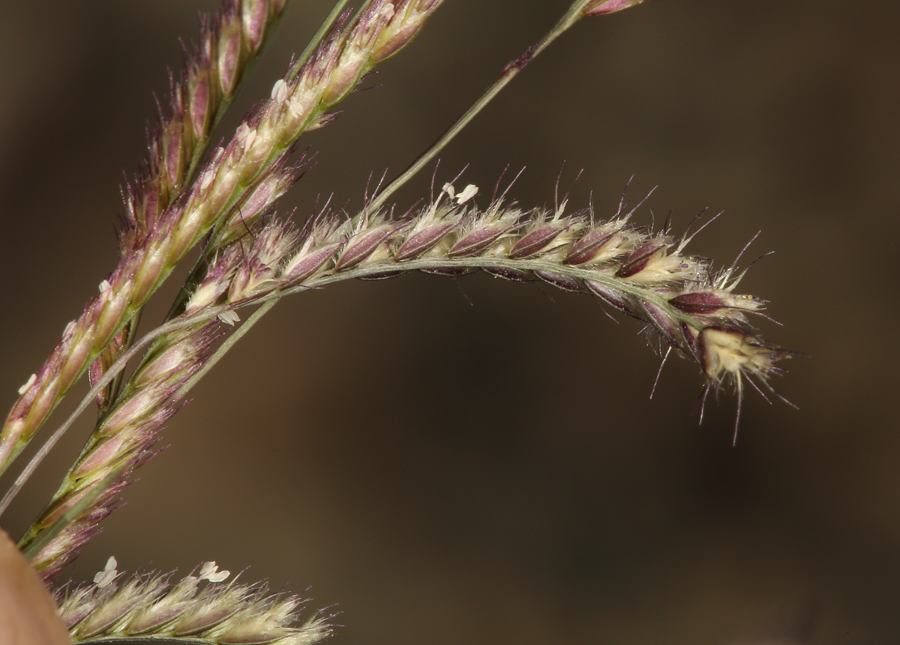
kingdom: Plantae
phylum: Tracheophyta
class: Liliopsida
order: Poales
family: Poaceae
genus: Bouteloua
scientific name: Bouteloua barbata
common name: Six-weeks grama
